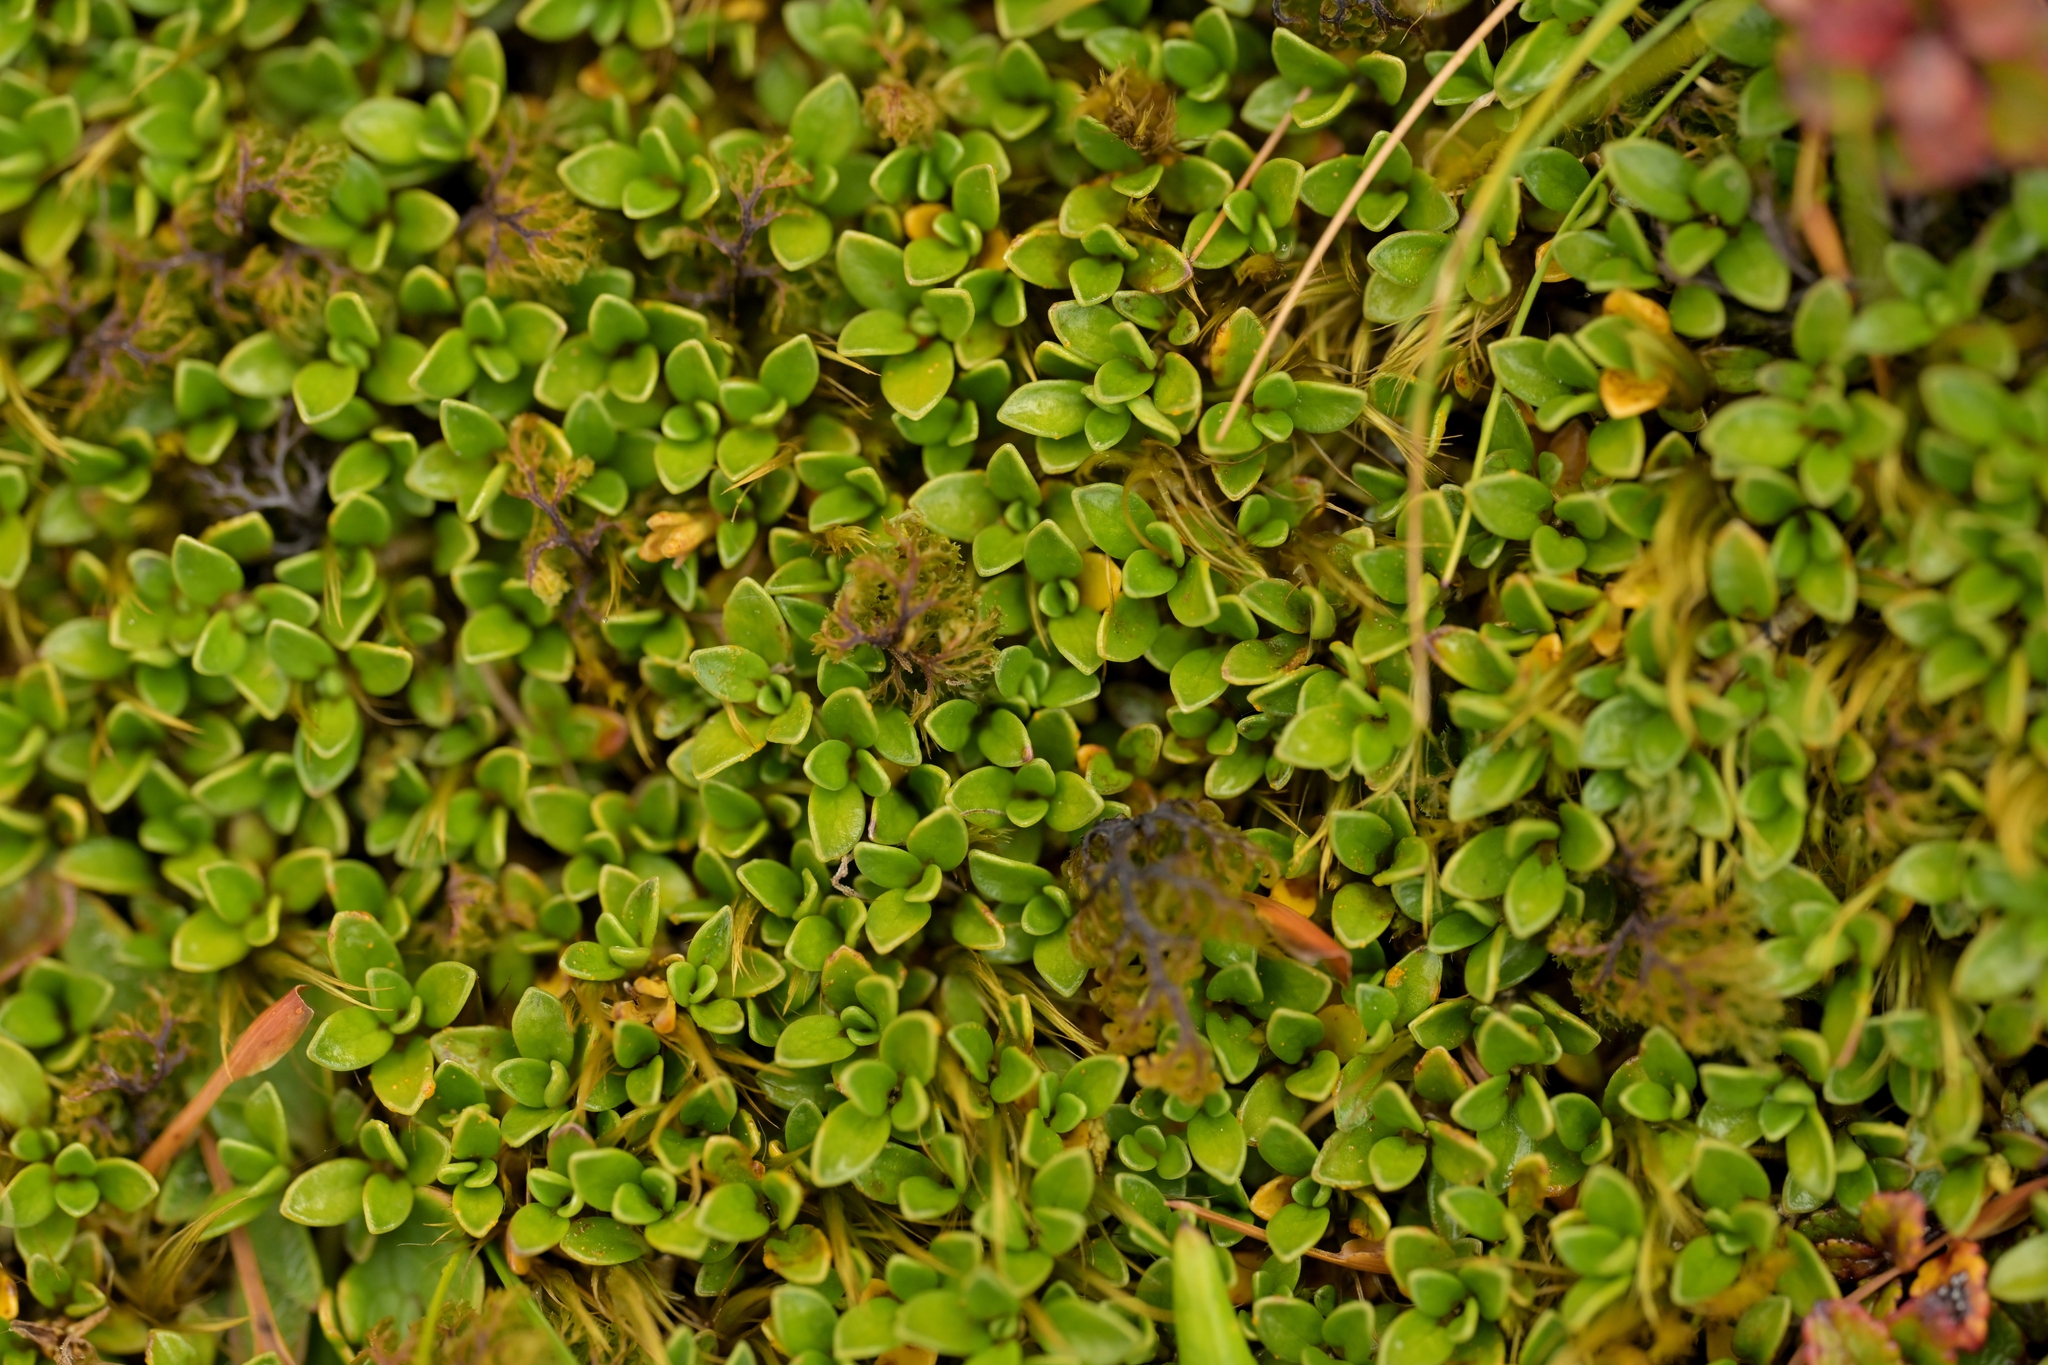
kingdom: Plantae
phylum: Tracheophyta
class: Magnoliopsida
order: Gentianales
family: Rubiaceae
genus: Coprosma
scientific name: Coprosma perpusilla
